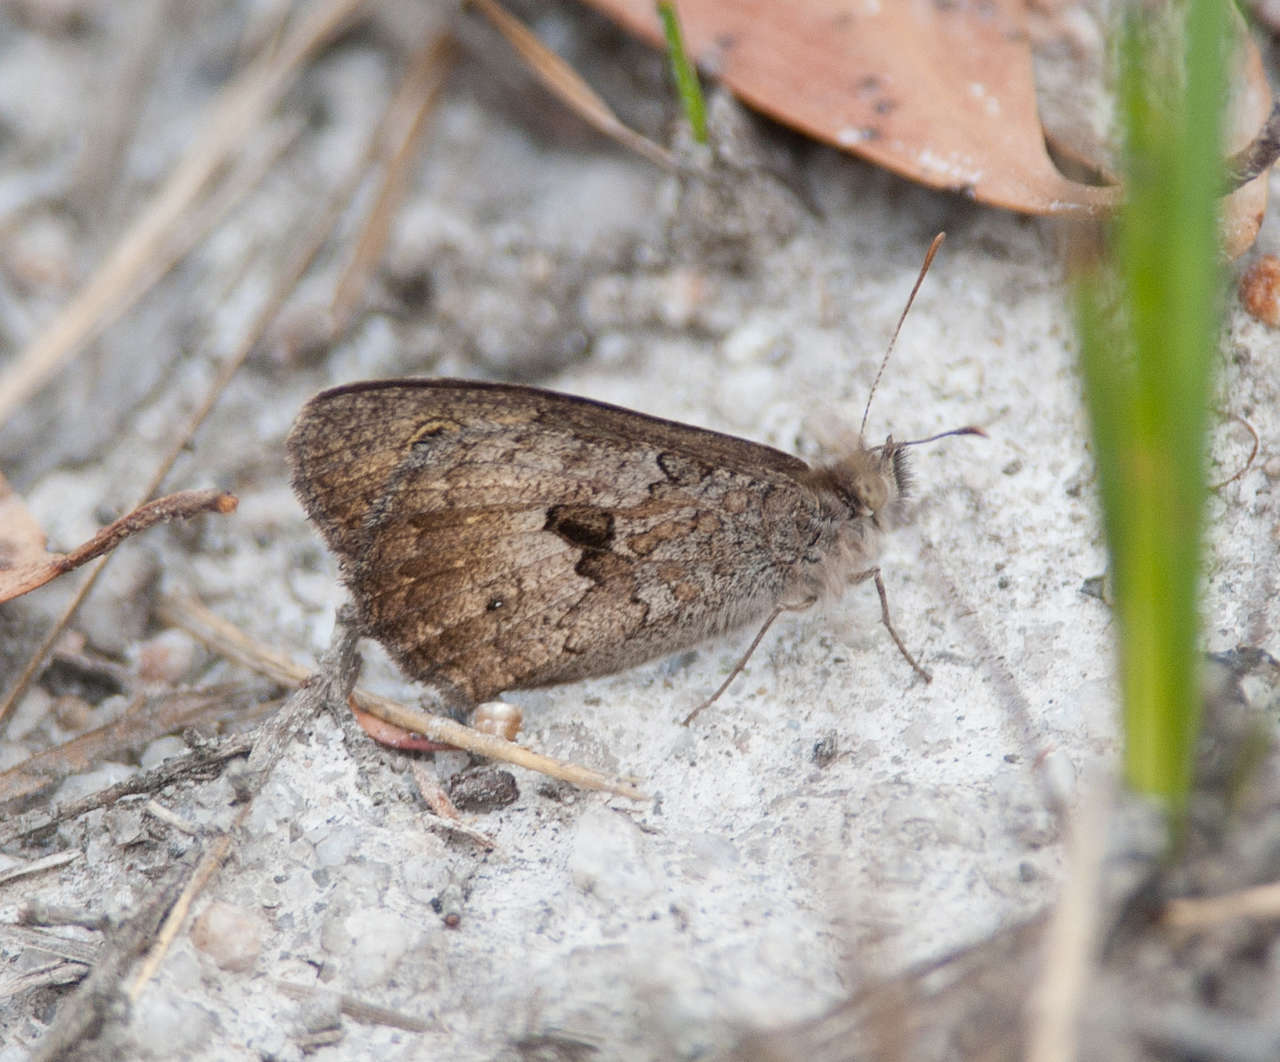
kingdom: Animalia
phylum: Arthropoda
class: Insecta
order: Lepidoptera
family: Nymphalidae
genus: Geitoneura
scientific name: Geitoneura klugii
